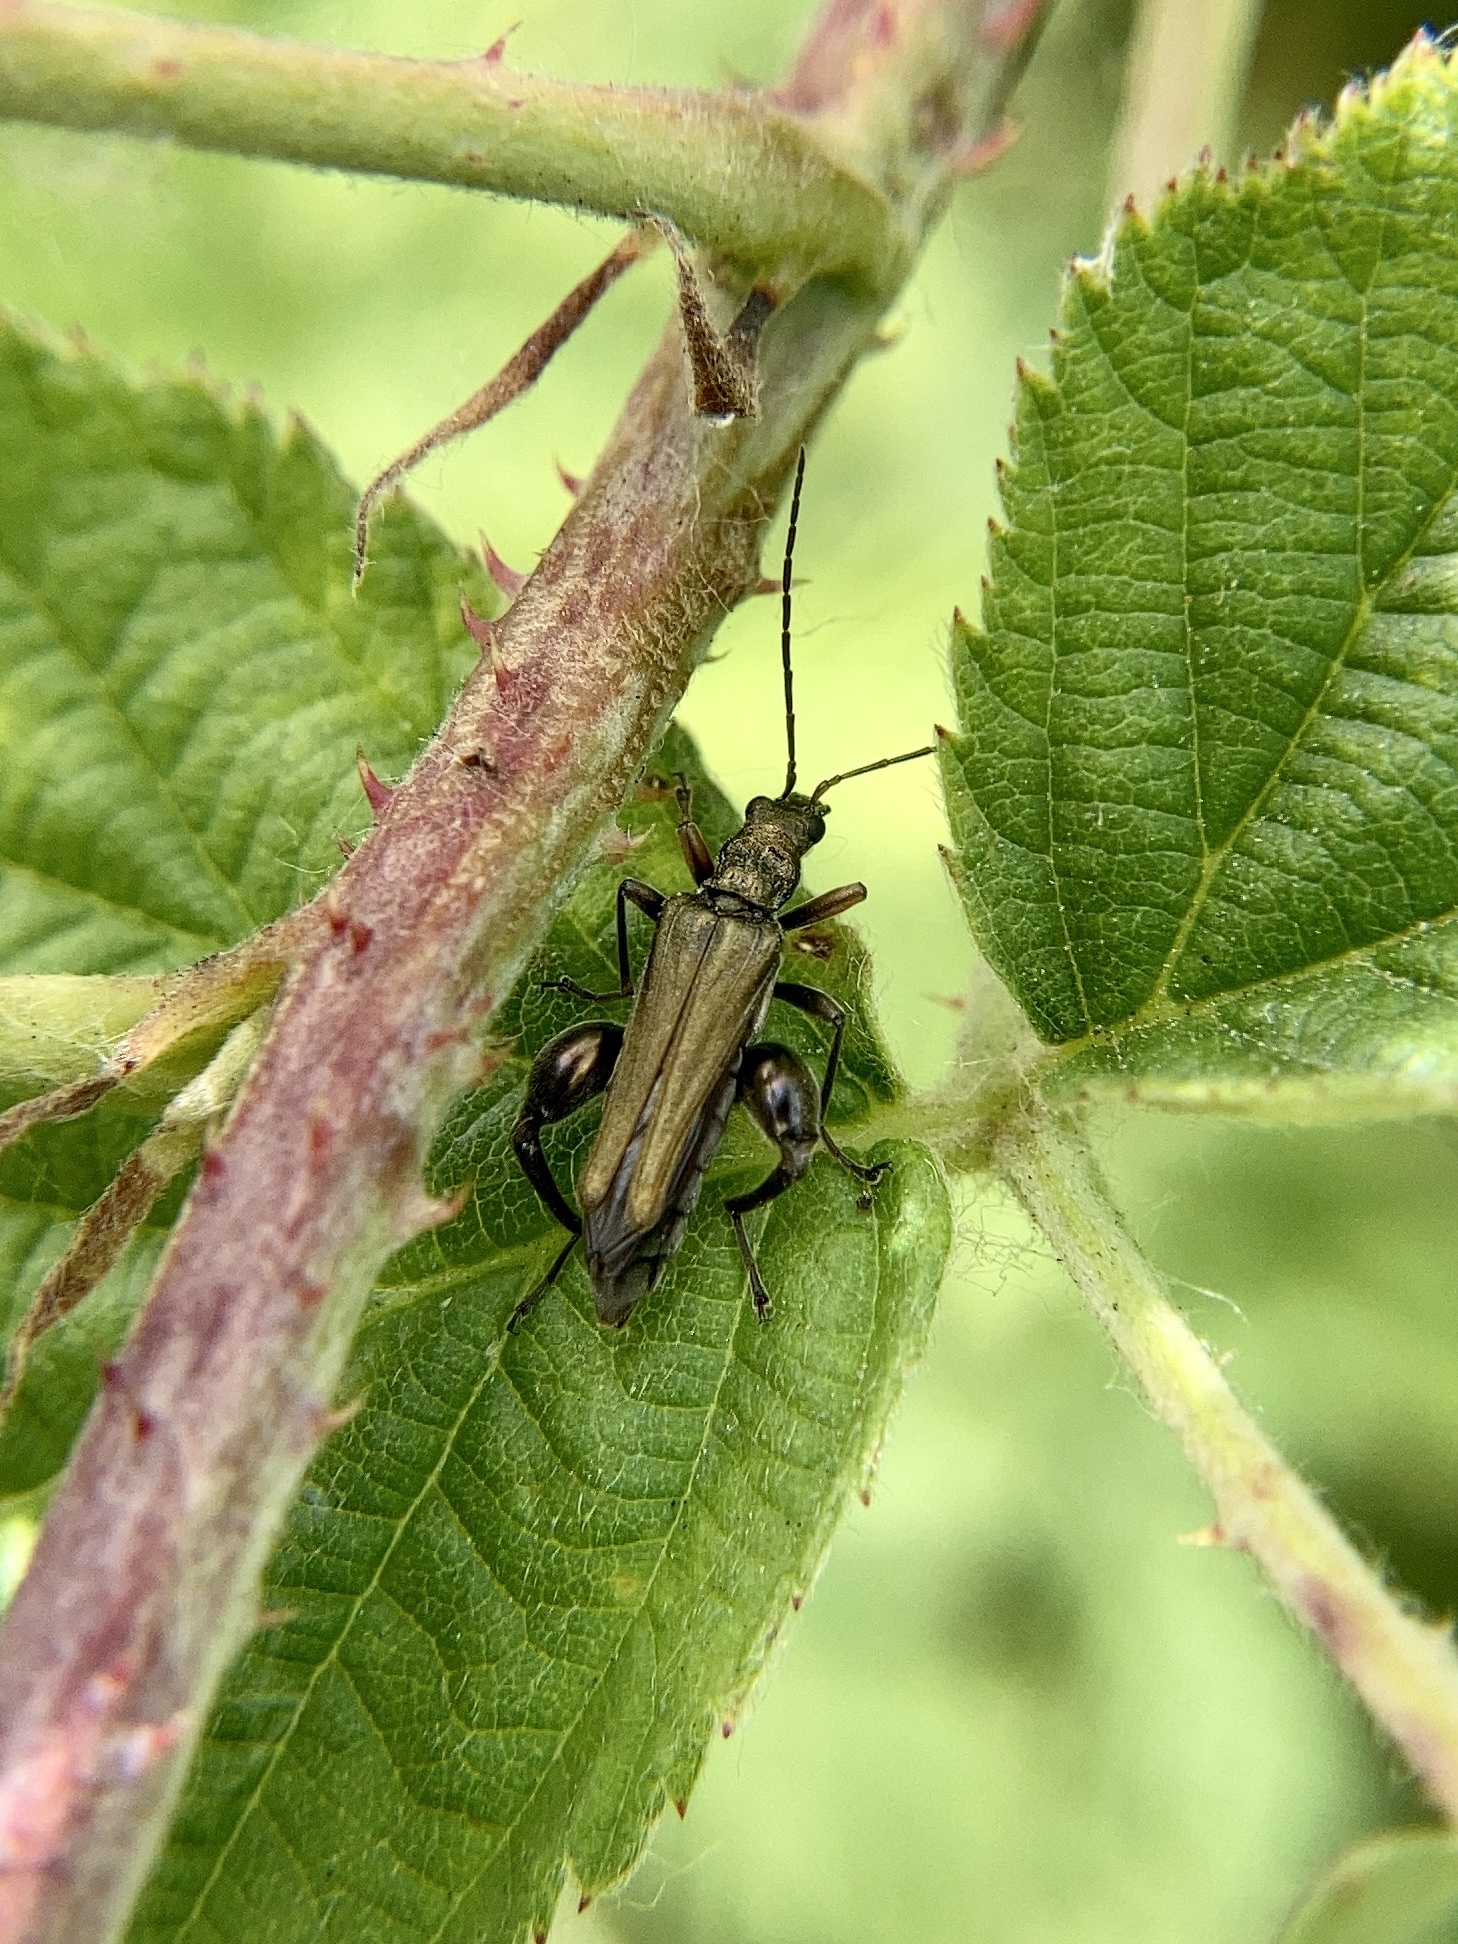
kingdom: Animalia
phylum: Arthropoda
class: Insecta
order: Coleoptera
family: Oedemeridae
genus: Oedemera
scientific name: Oedemera flavipes
